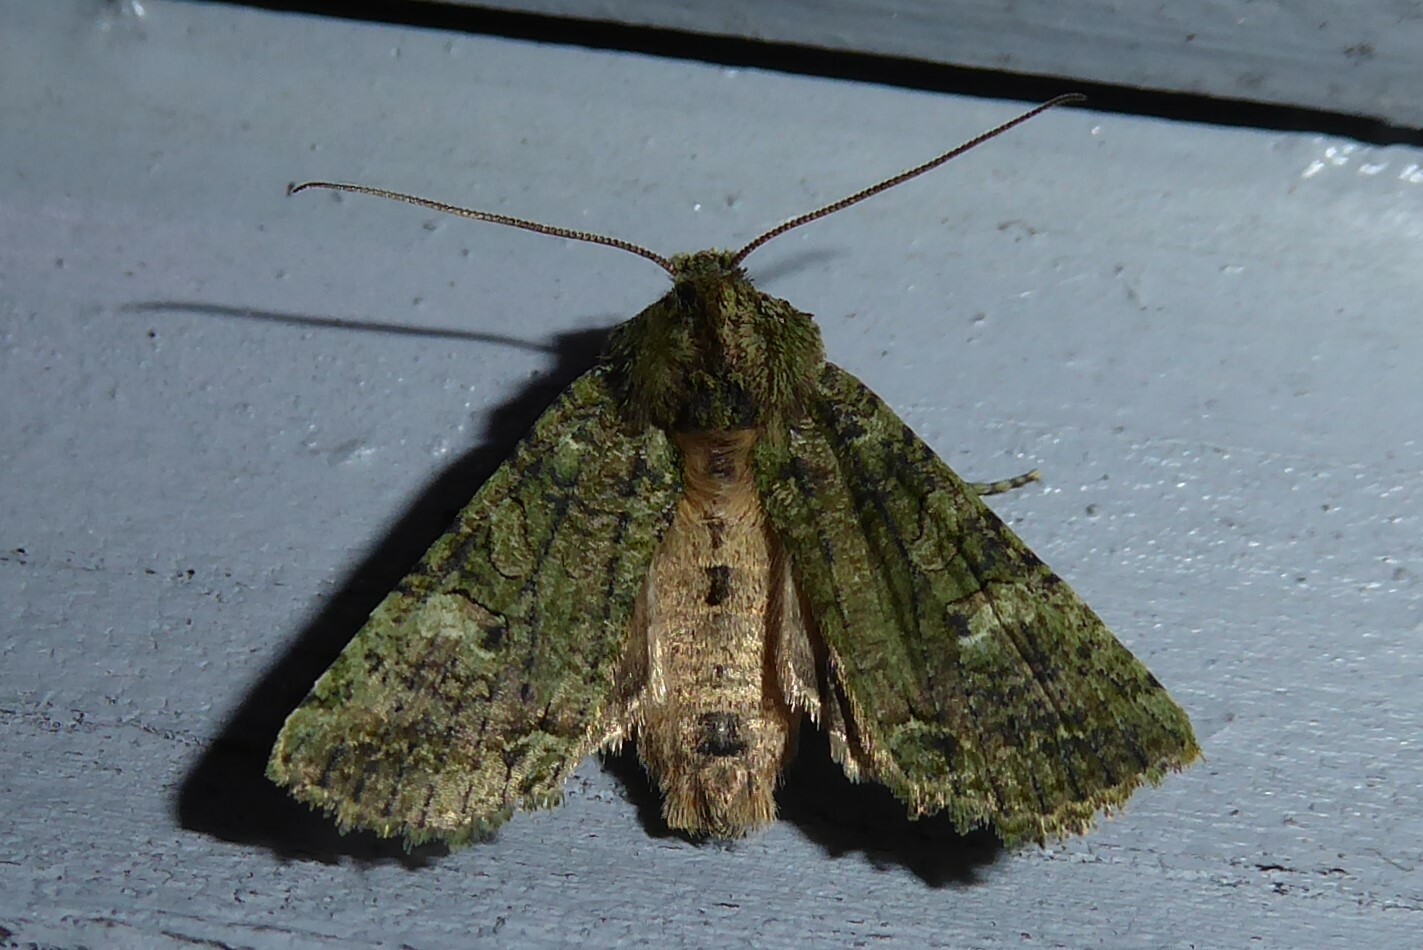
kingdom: Animalia
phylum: Arthropoda
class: Insecta
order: Lepidoptera
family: Noctuidae
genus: Meterana
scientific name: Meterana levis
